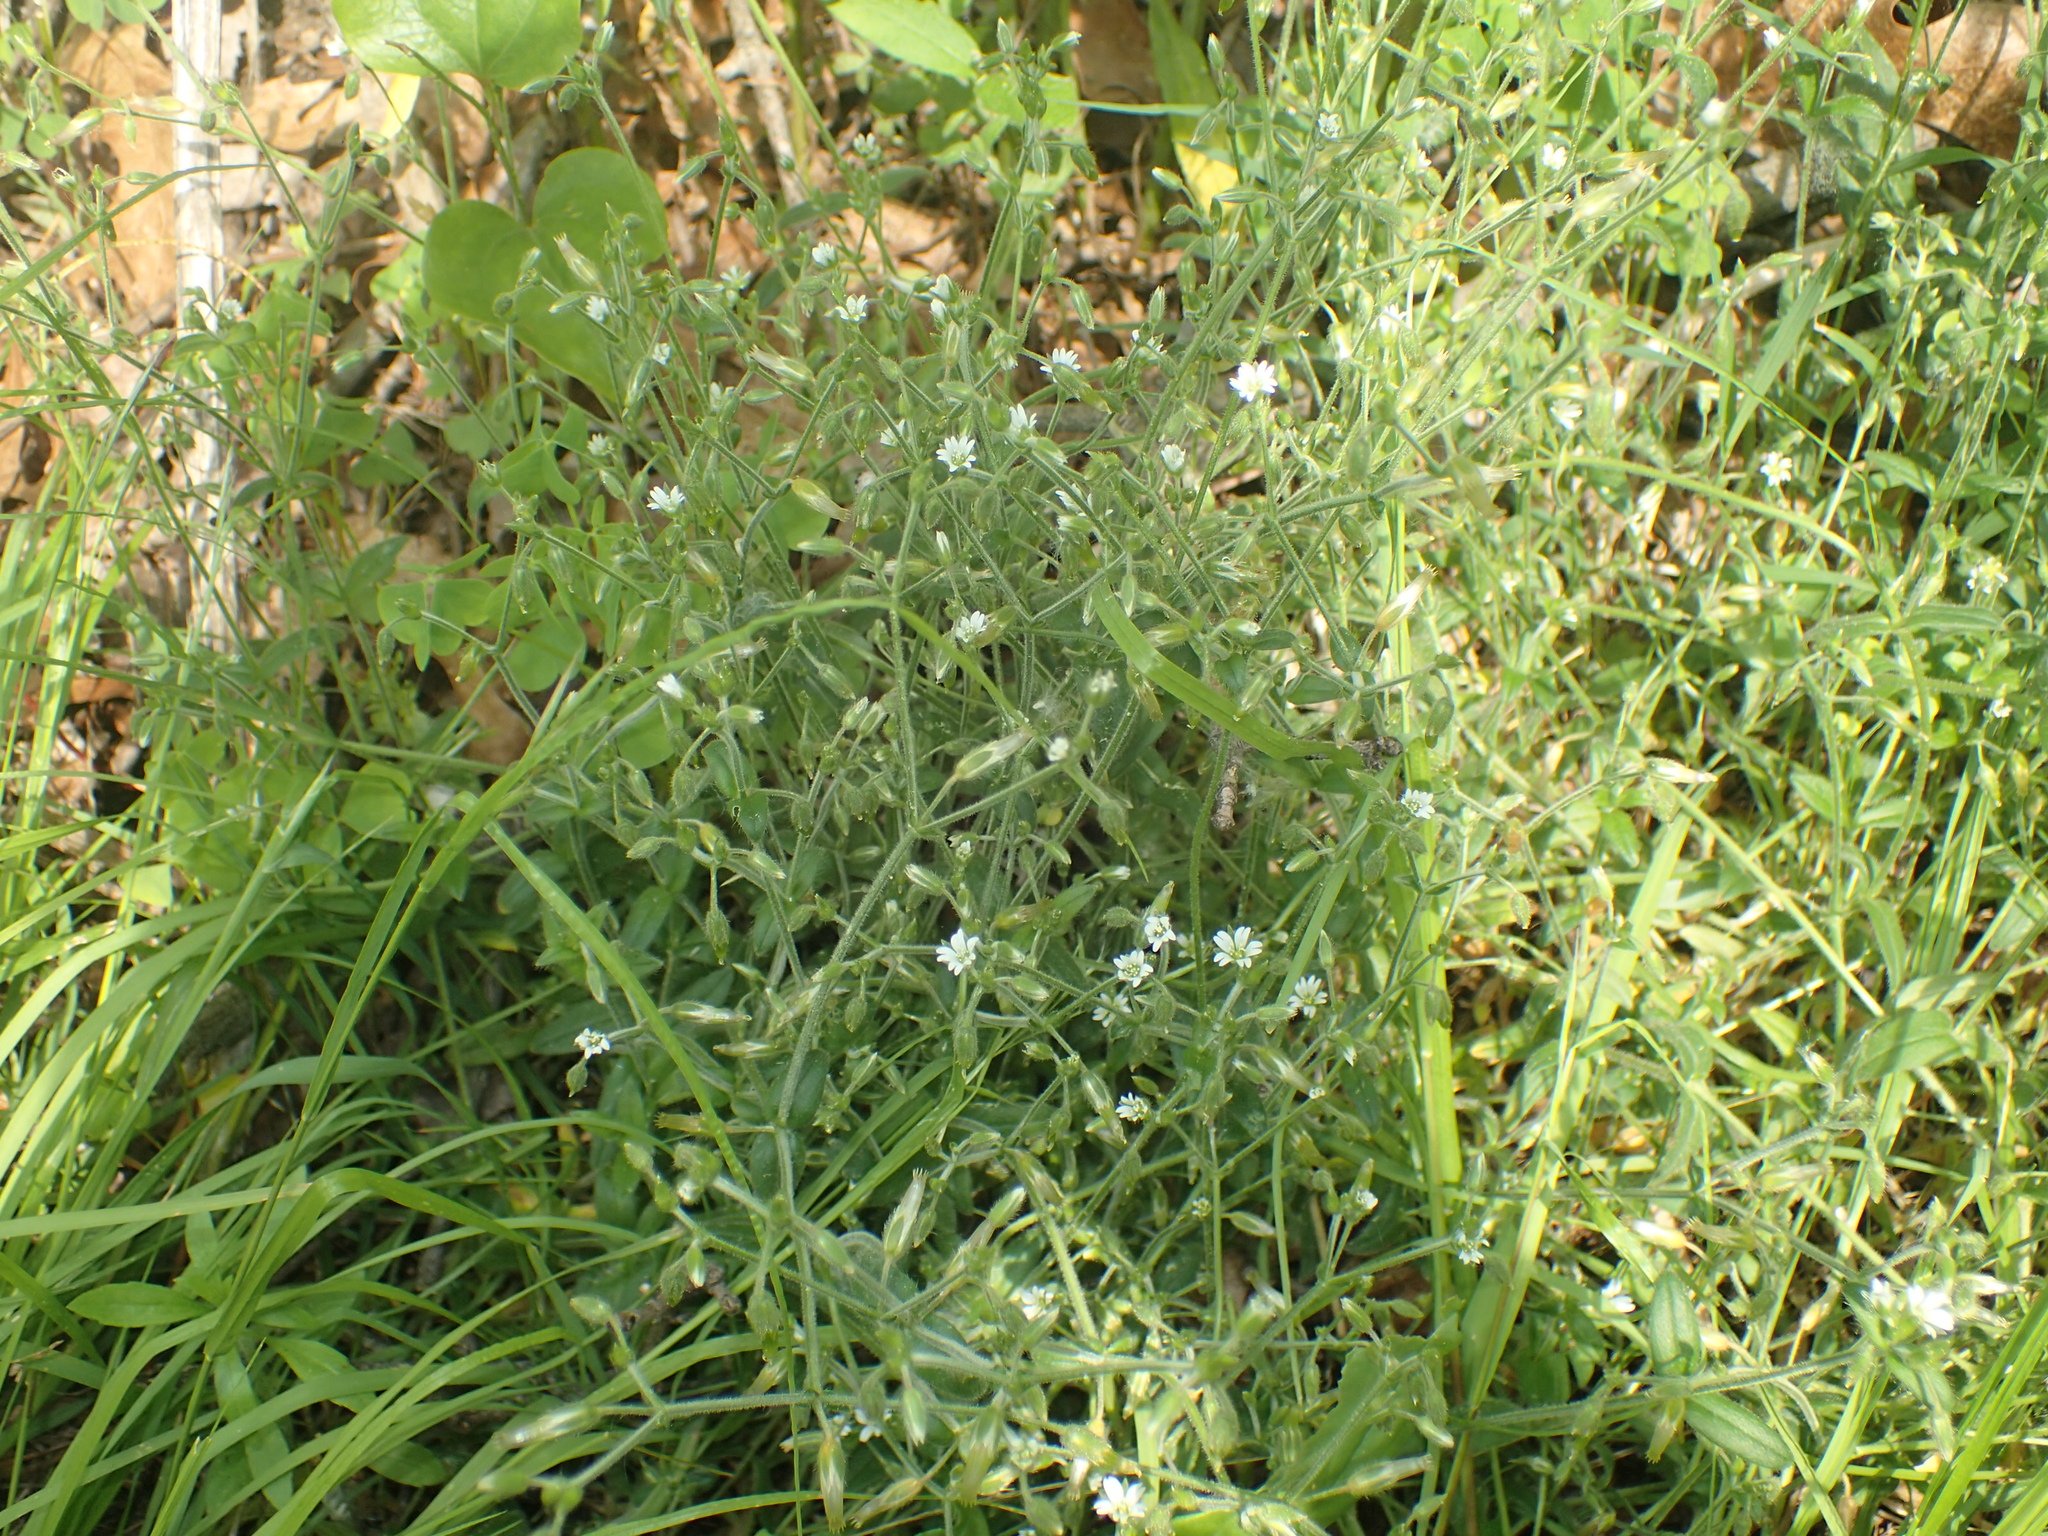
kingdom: Plantae
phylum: Tracheophyta
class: Magnoliopsida
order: Caryophyllales
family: Caryophyllaceae
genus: Cerastium
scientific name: Cerastium fontanum
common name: Common mouse-ear
